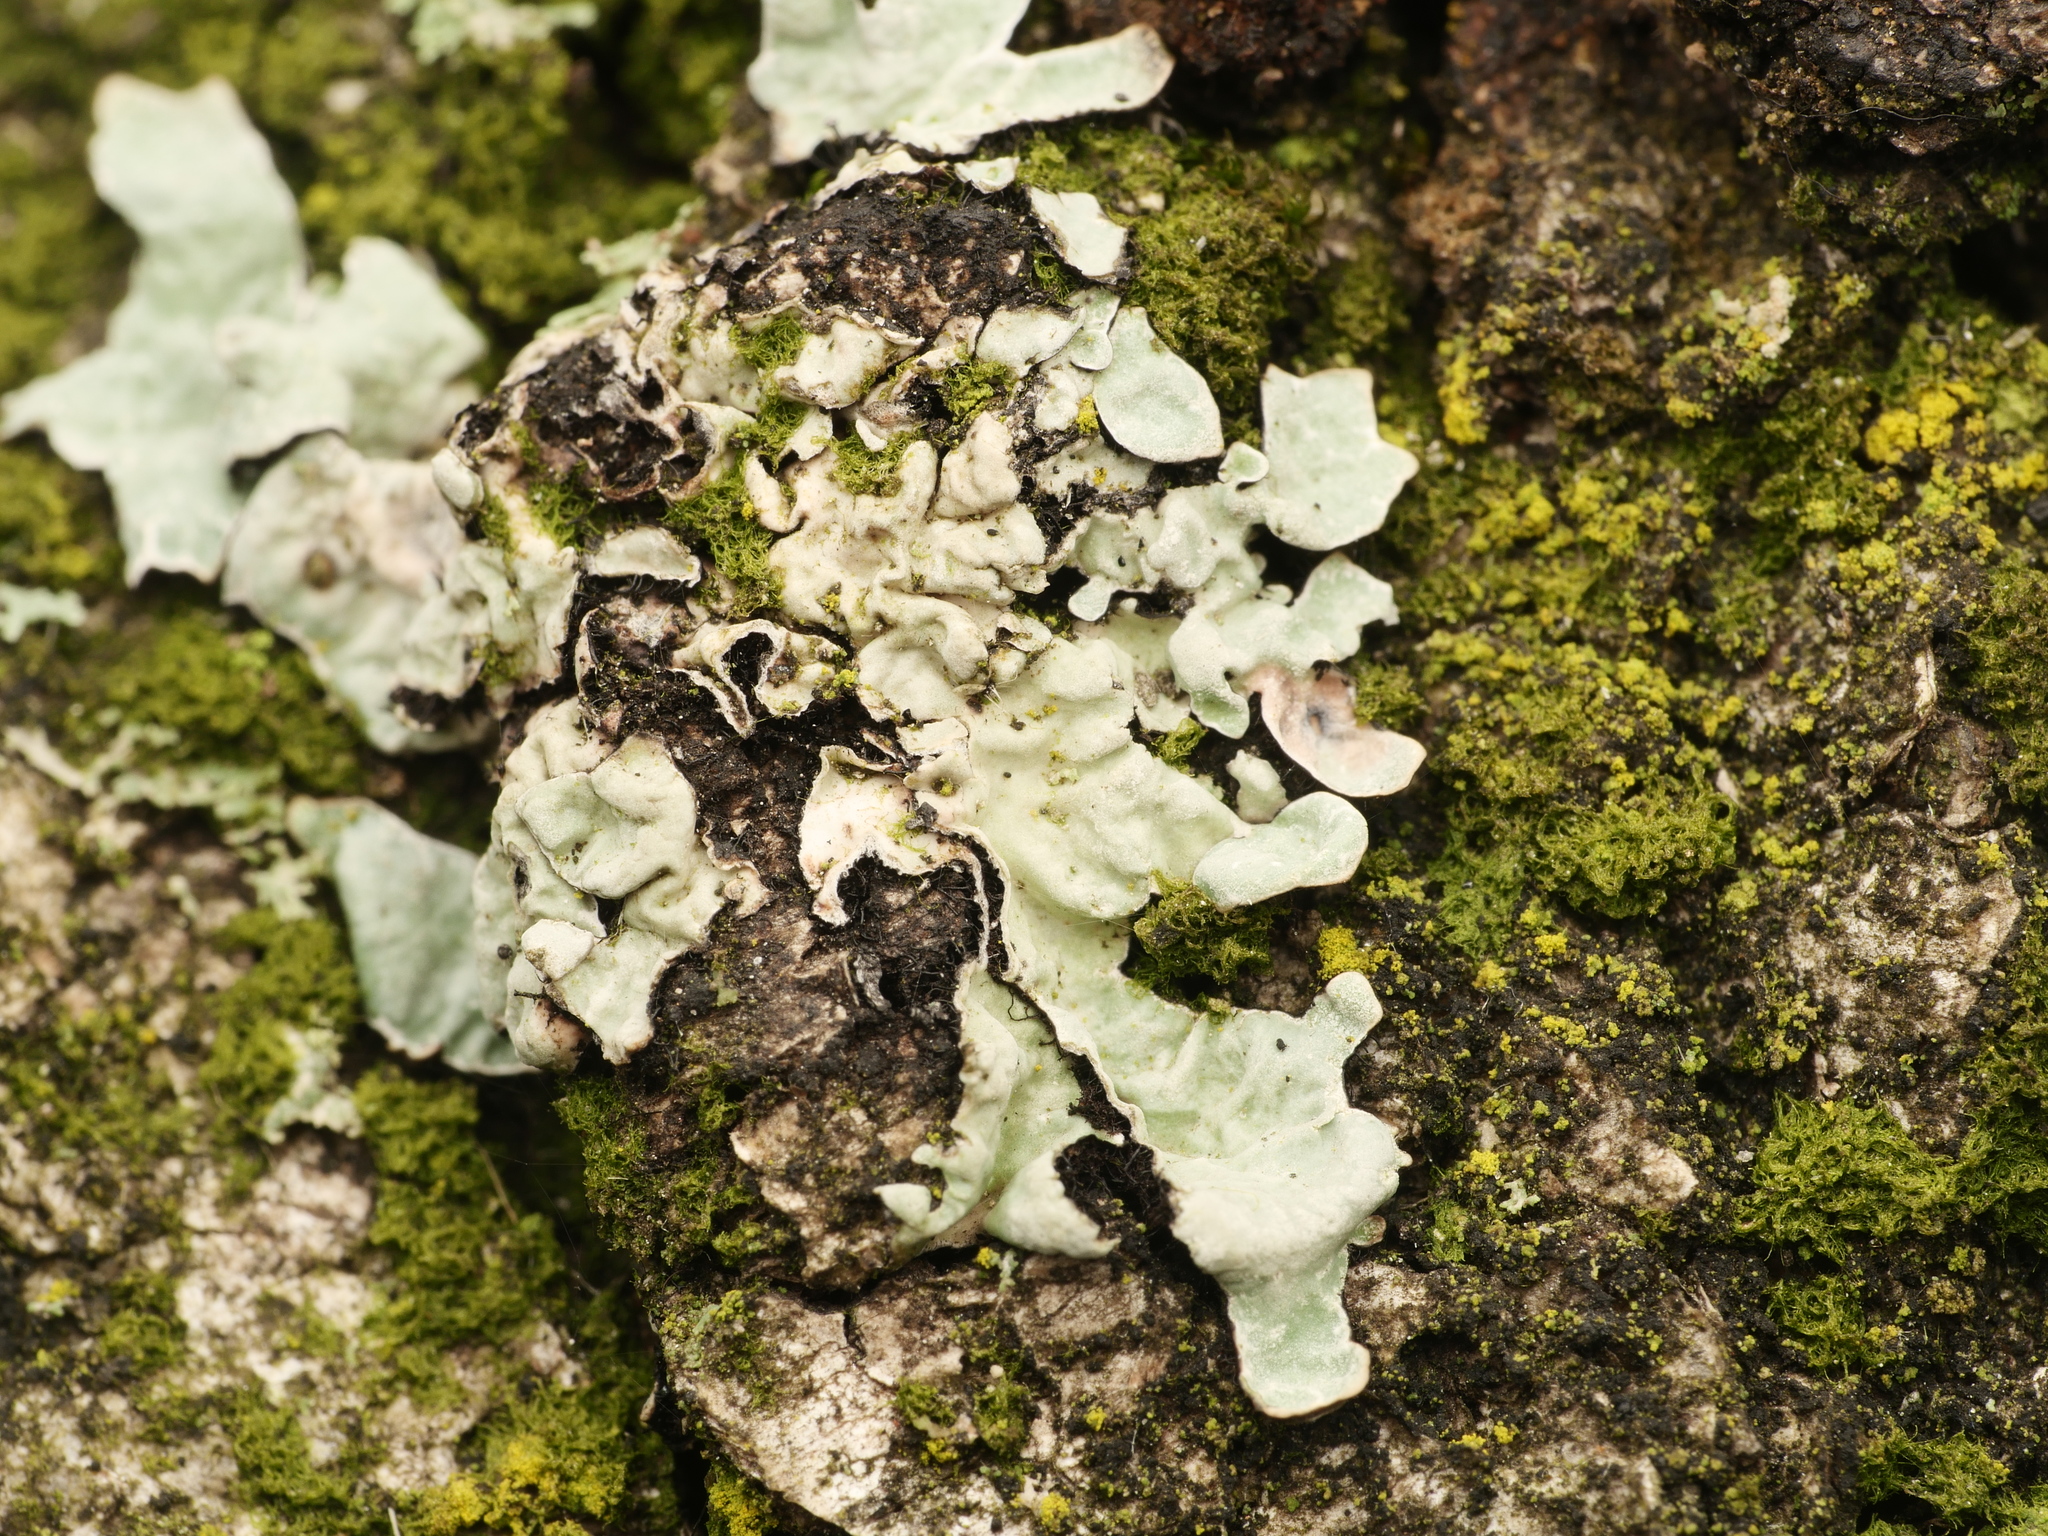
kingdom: Fungi
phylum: Ascomycota
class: Lecanoromycetes
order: Lecanorales
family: Parmeliaceae
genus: Parmelia
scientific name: Parmelia sulcata
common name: Netted shield lichen
